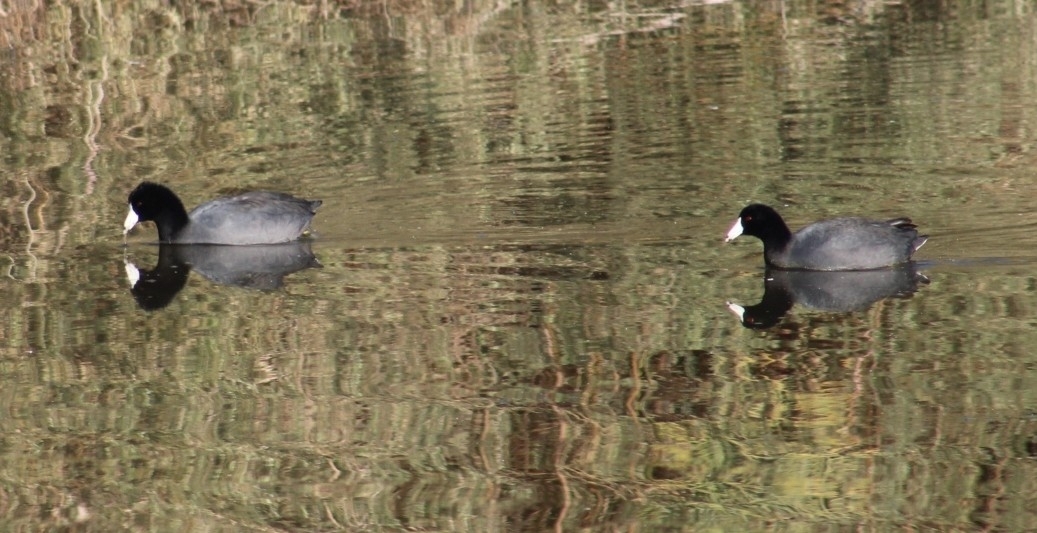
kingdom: Animalia
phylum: Chordata
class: Aves
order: Gruiformes
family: Rallidae
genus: Fulica
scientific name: Fulica americana
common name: American coot
